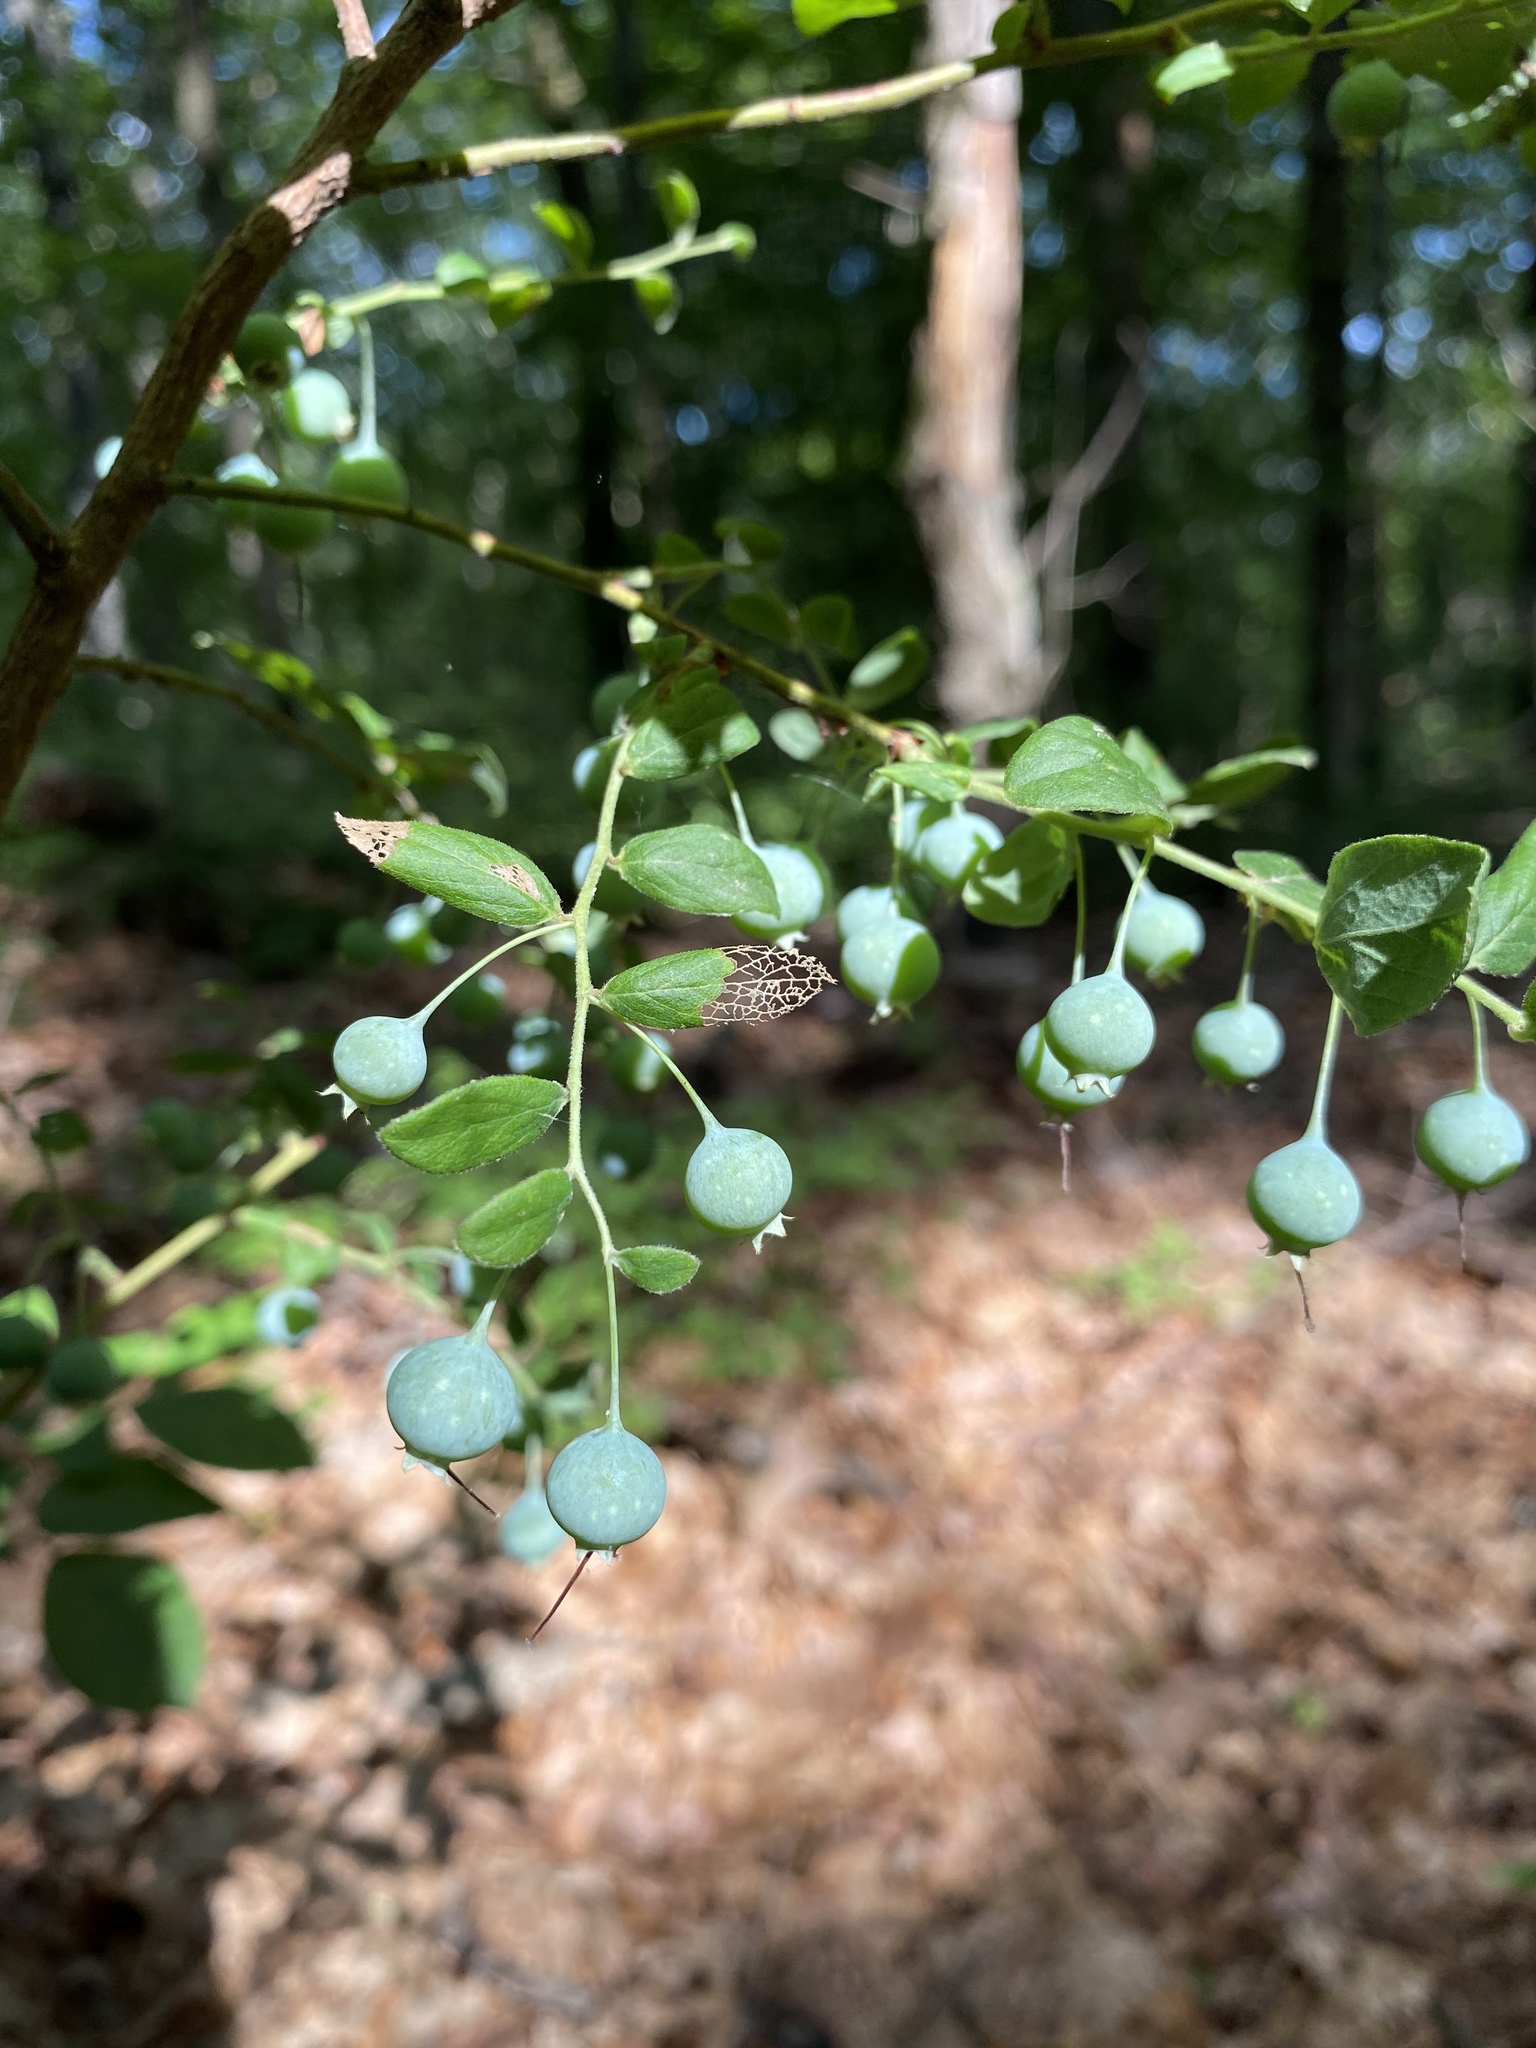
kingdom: Plantae
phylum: Tracheophyta
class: Magnoliopsida
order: Ericales
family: Ericaceae
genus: Vaccinium
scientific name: Vaccinium stamineum
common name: Deerberry
